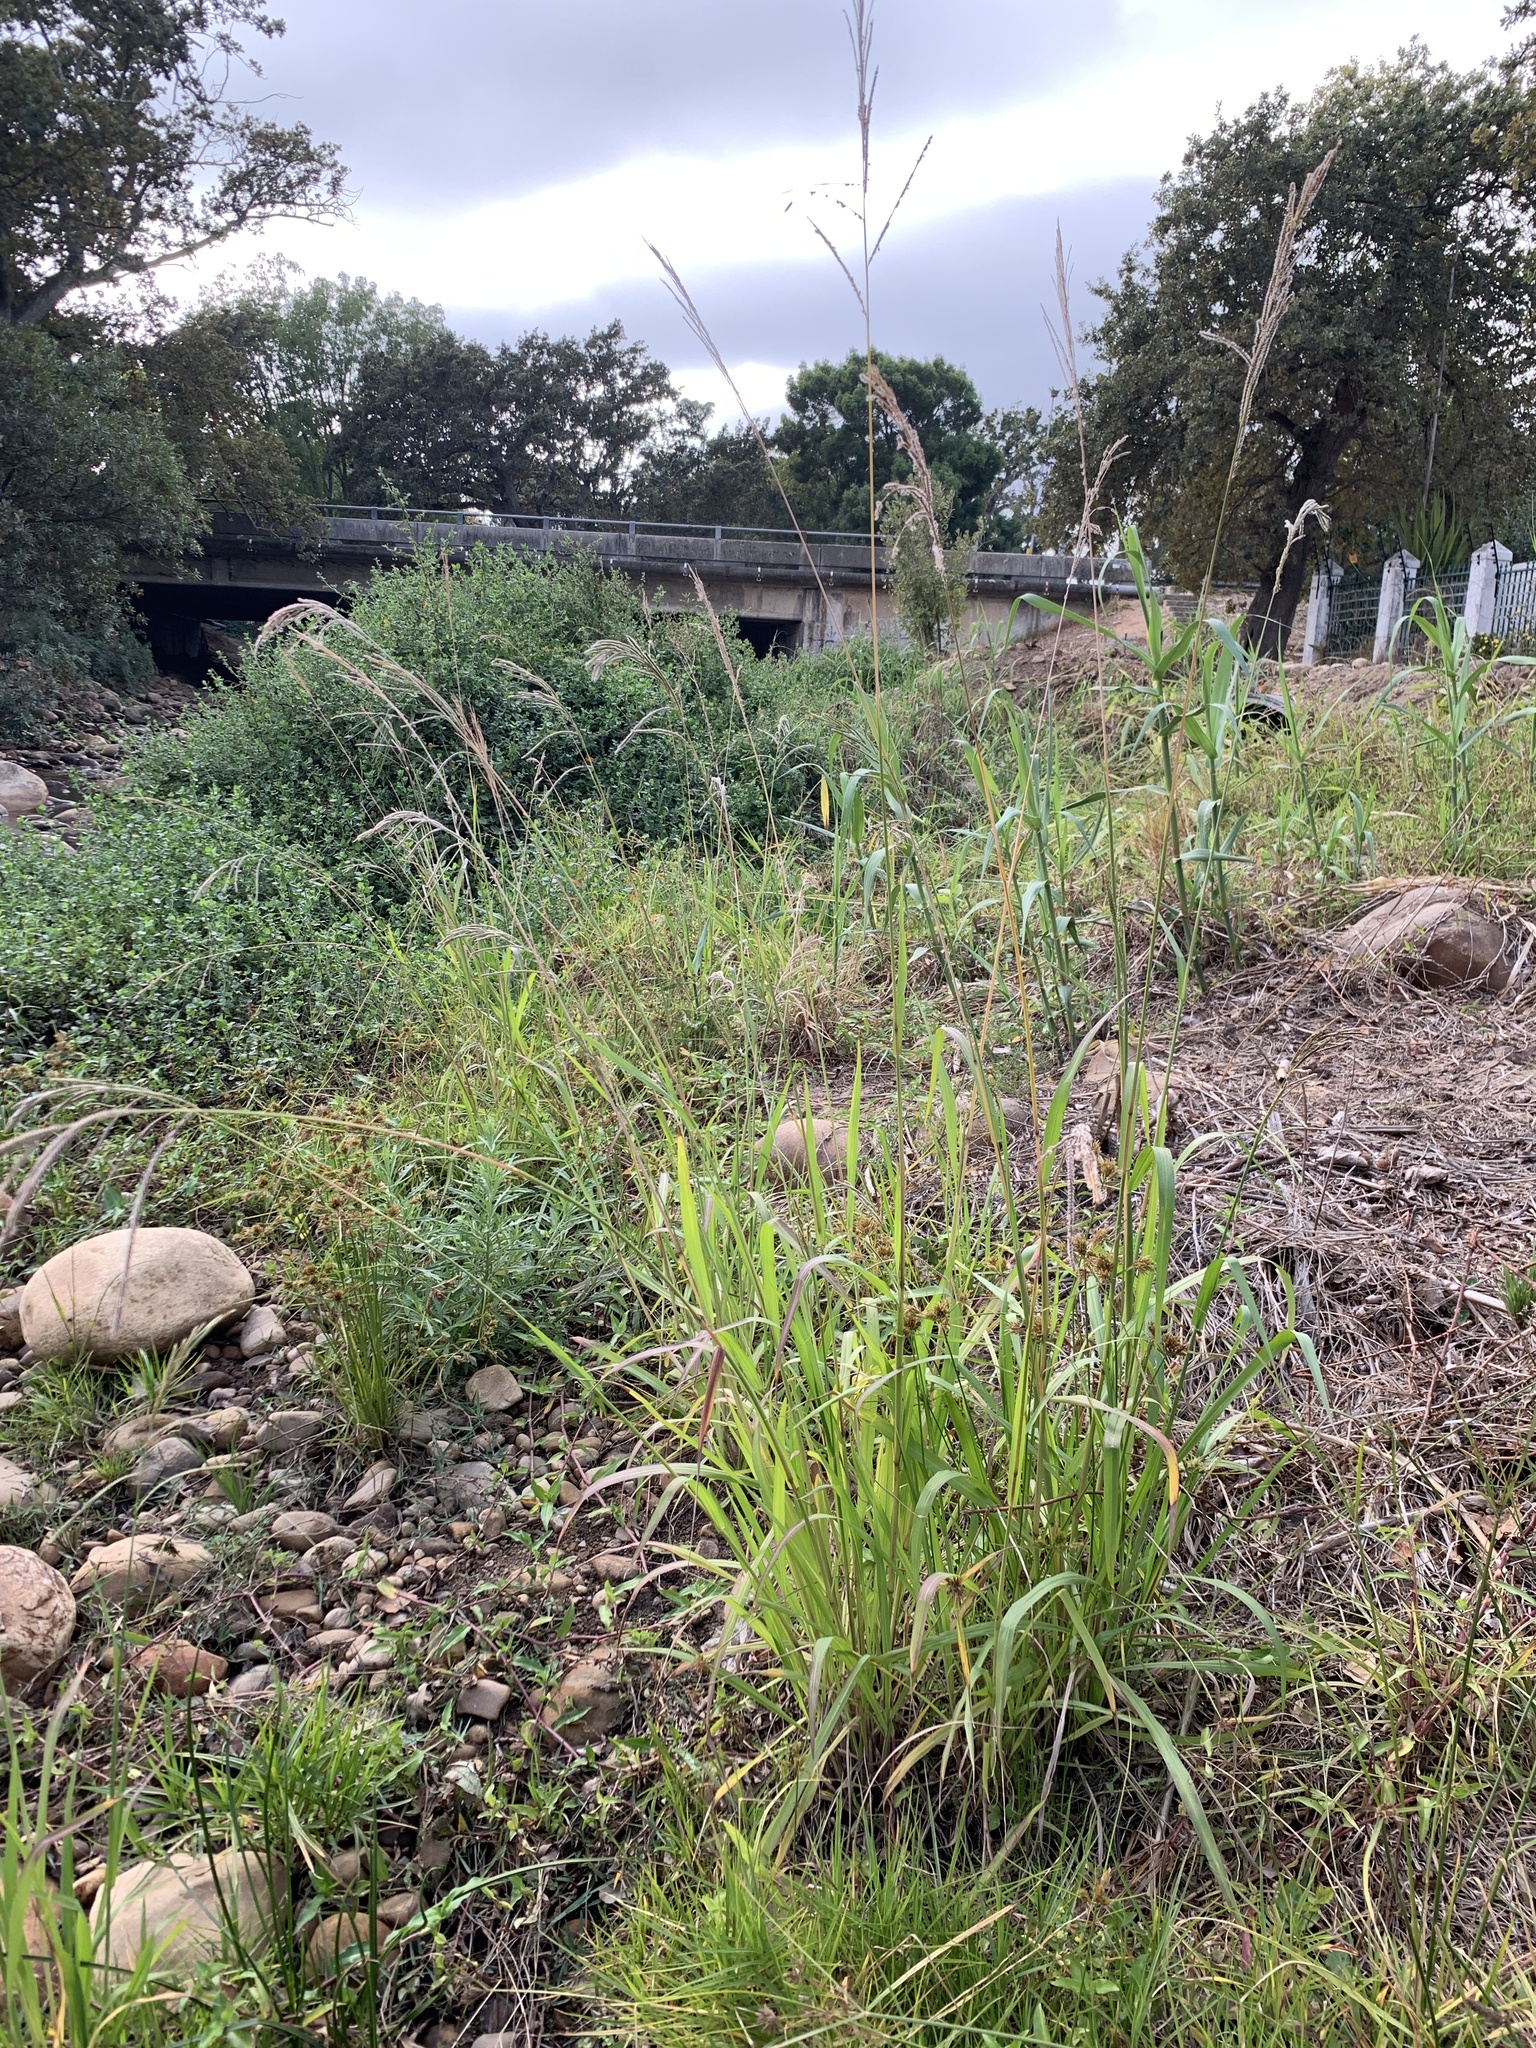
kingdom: Plantae
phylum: Tracheophyta
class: Liliopsida
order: Poales
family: Poaceae
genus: Paspalum
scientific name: Paspalum urvillei
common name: Vasey's grass
